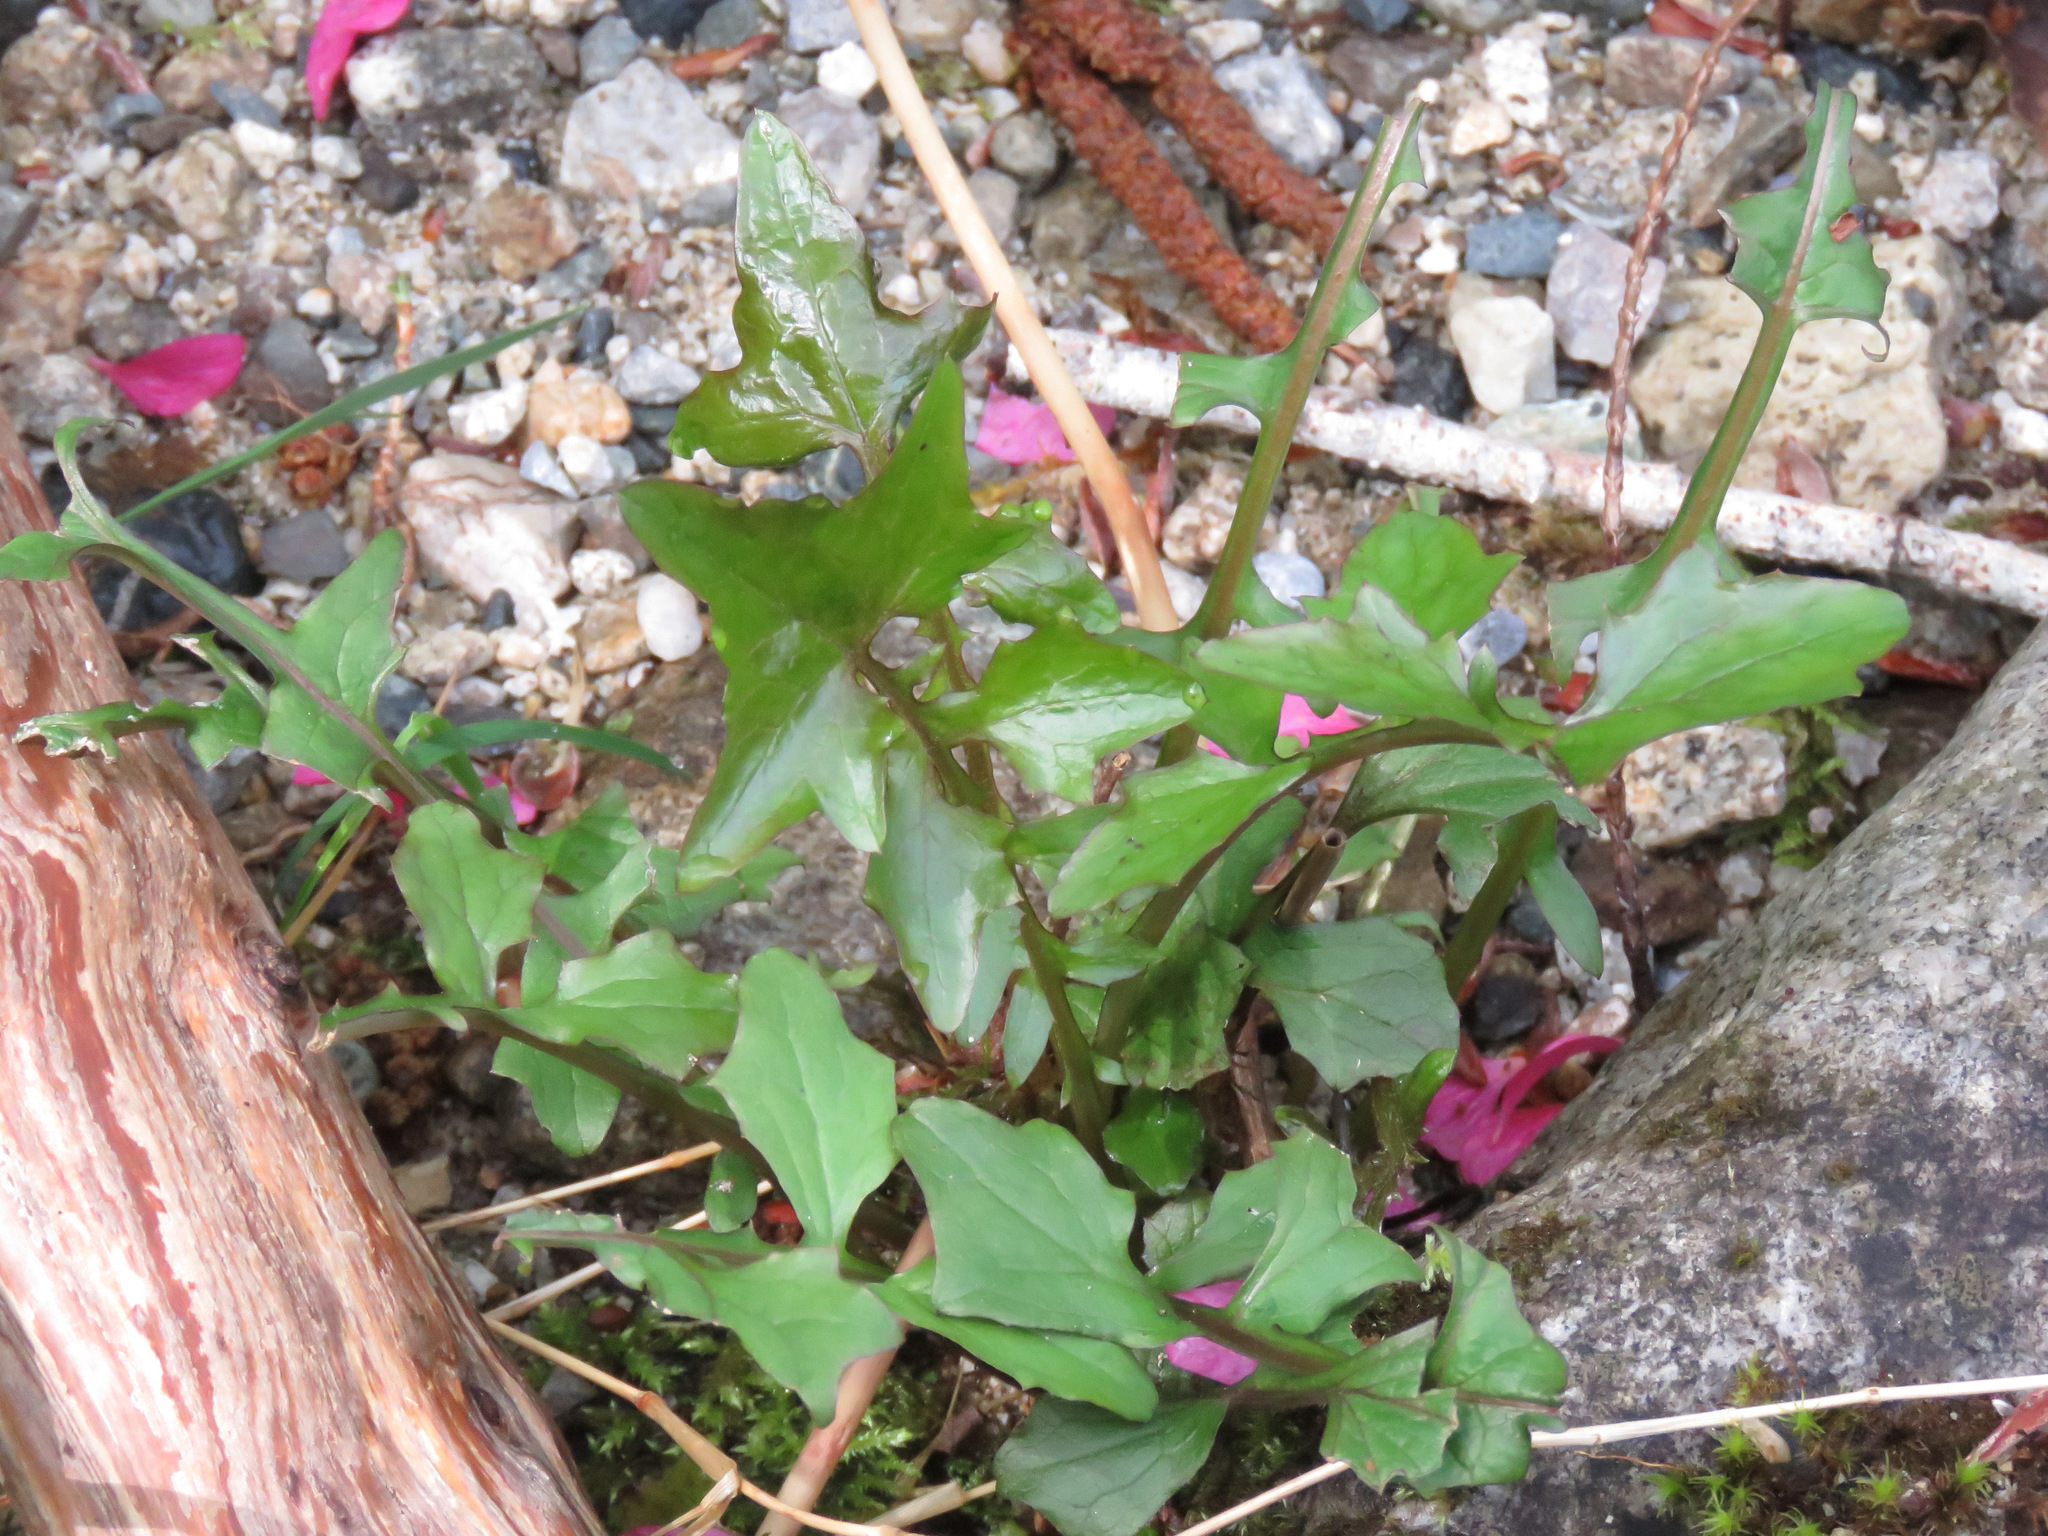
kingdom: Plantae
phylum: Tracheophyta
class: Magnoliopsida
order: Asterales
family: Asteraceae
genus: Mycelis
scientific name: Mycelis muralis
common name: Wall lettuce
